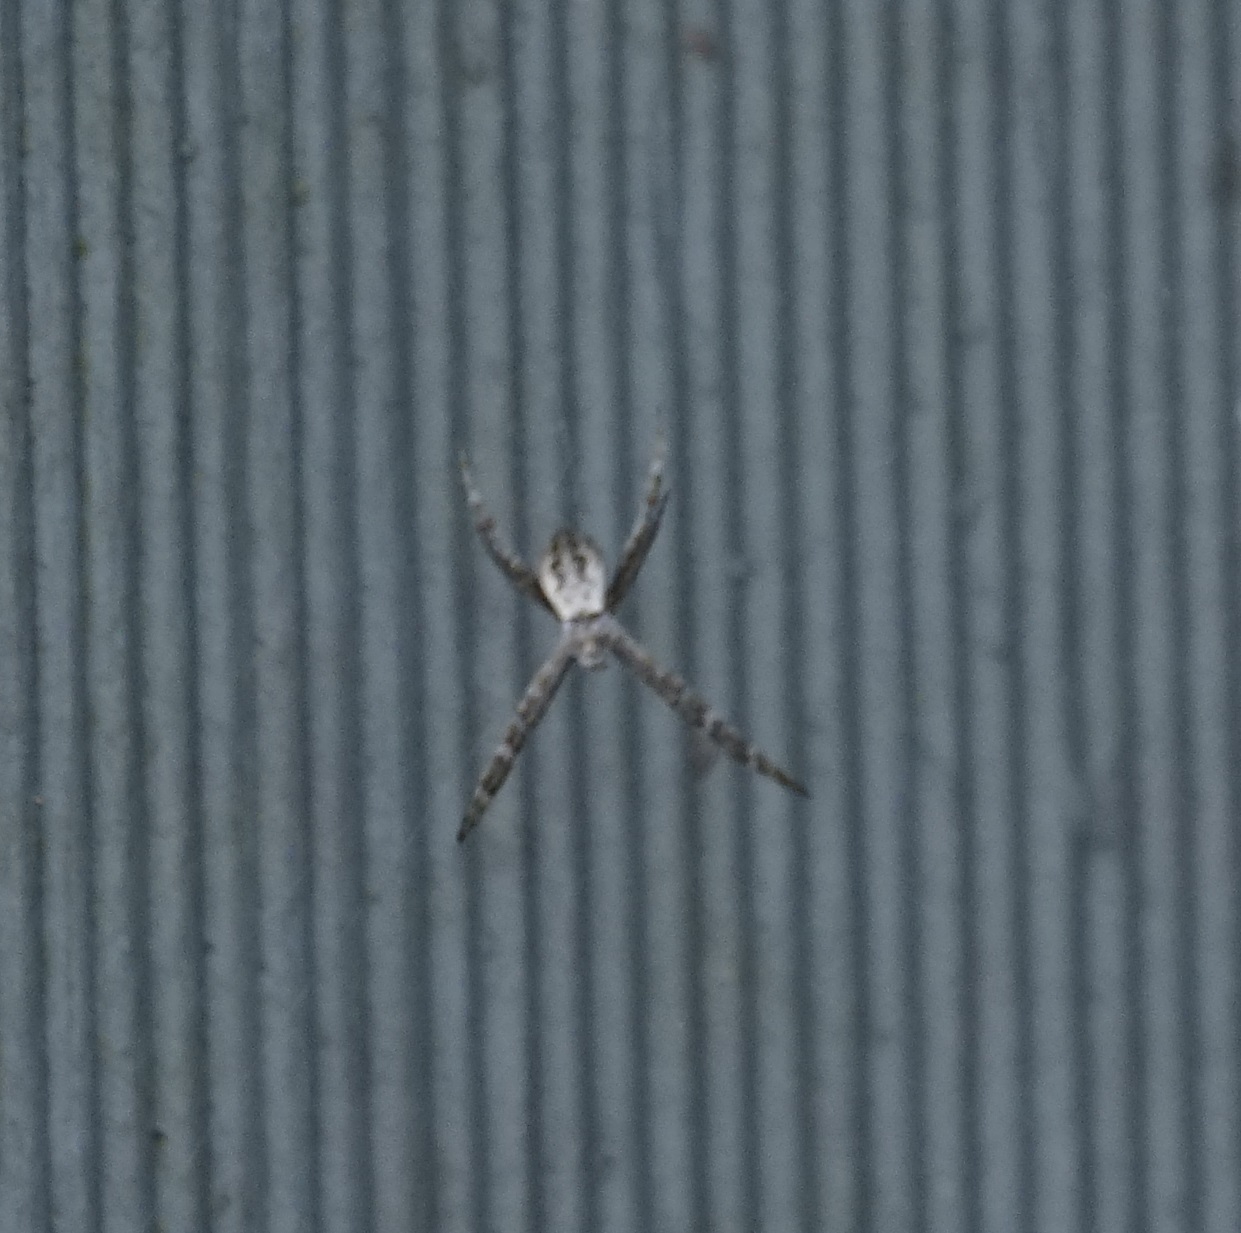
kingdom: Animalia
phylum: Arthropoda
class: Arachnida
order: Araneae
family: Araneidae
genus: Argiope
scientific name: Argiope keyserlingi
